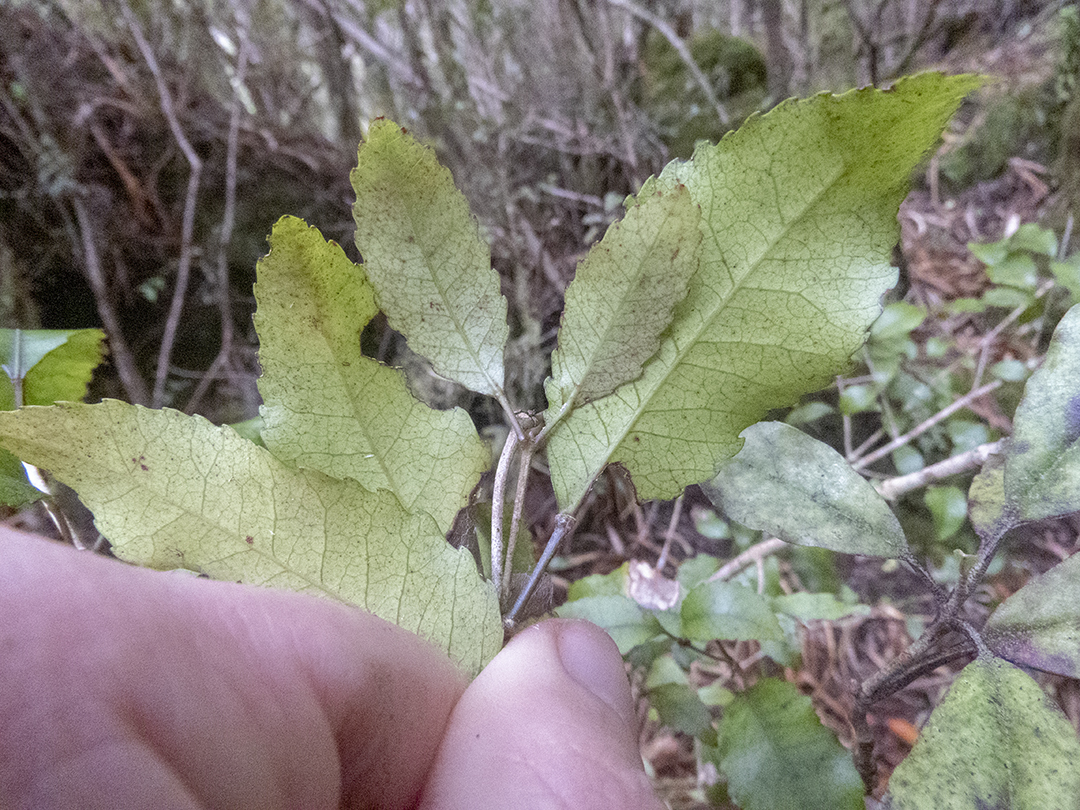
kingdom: Plantae
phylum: Tracheophyta
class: Magnoliopsida
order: Oxalidales
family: Cunoniaceae
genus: Pterophylla
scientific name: Pterophylla racemosa
